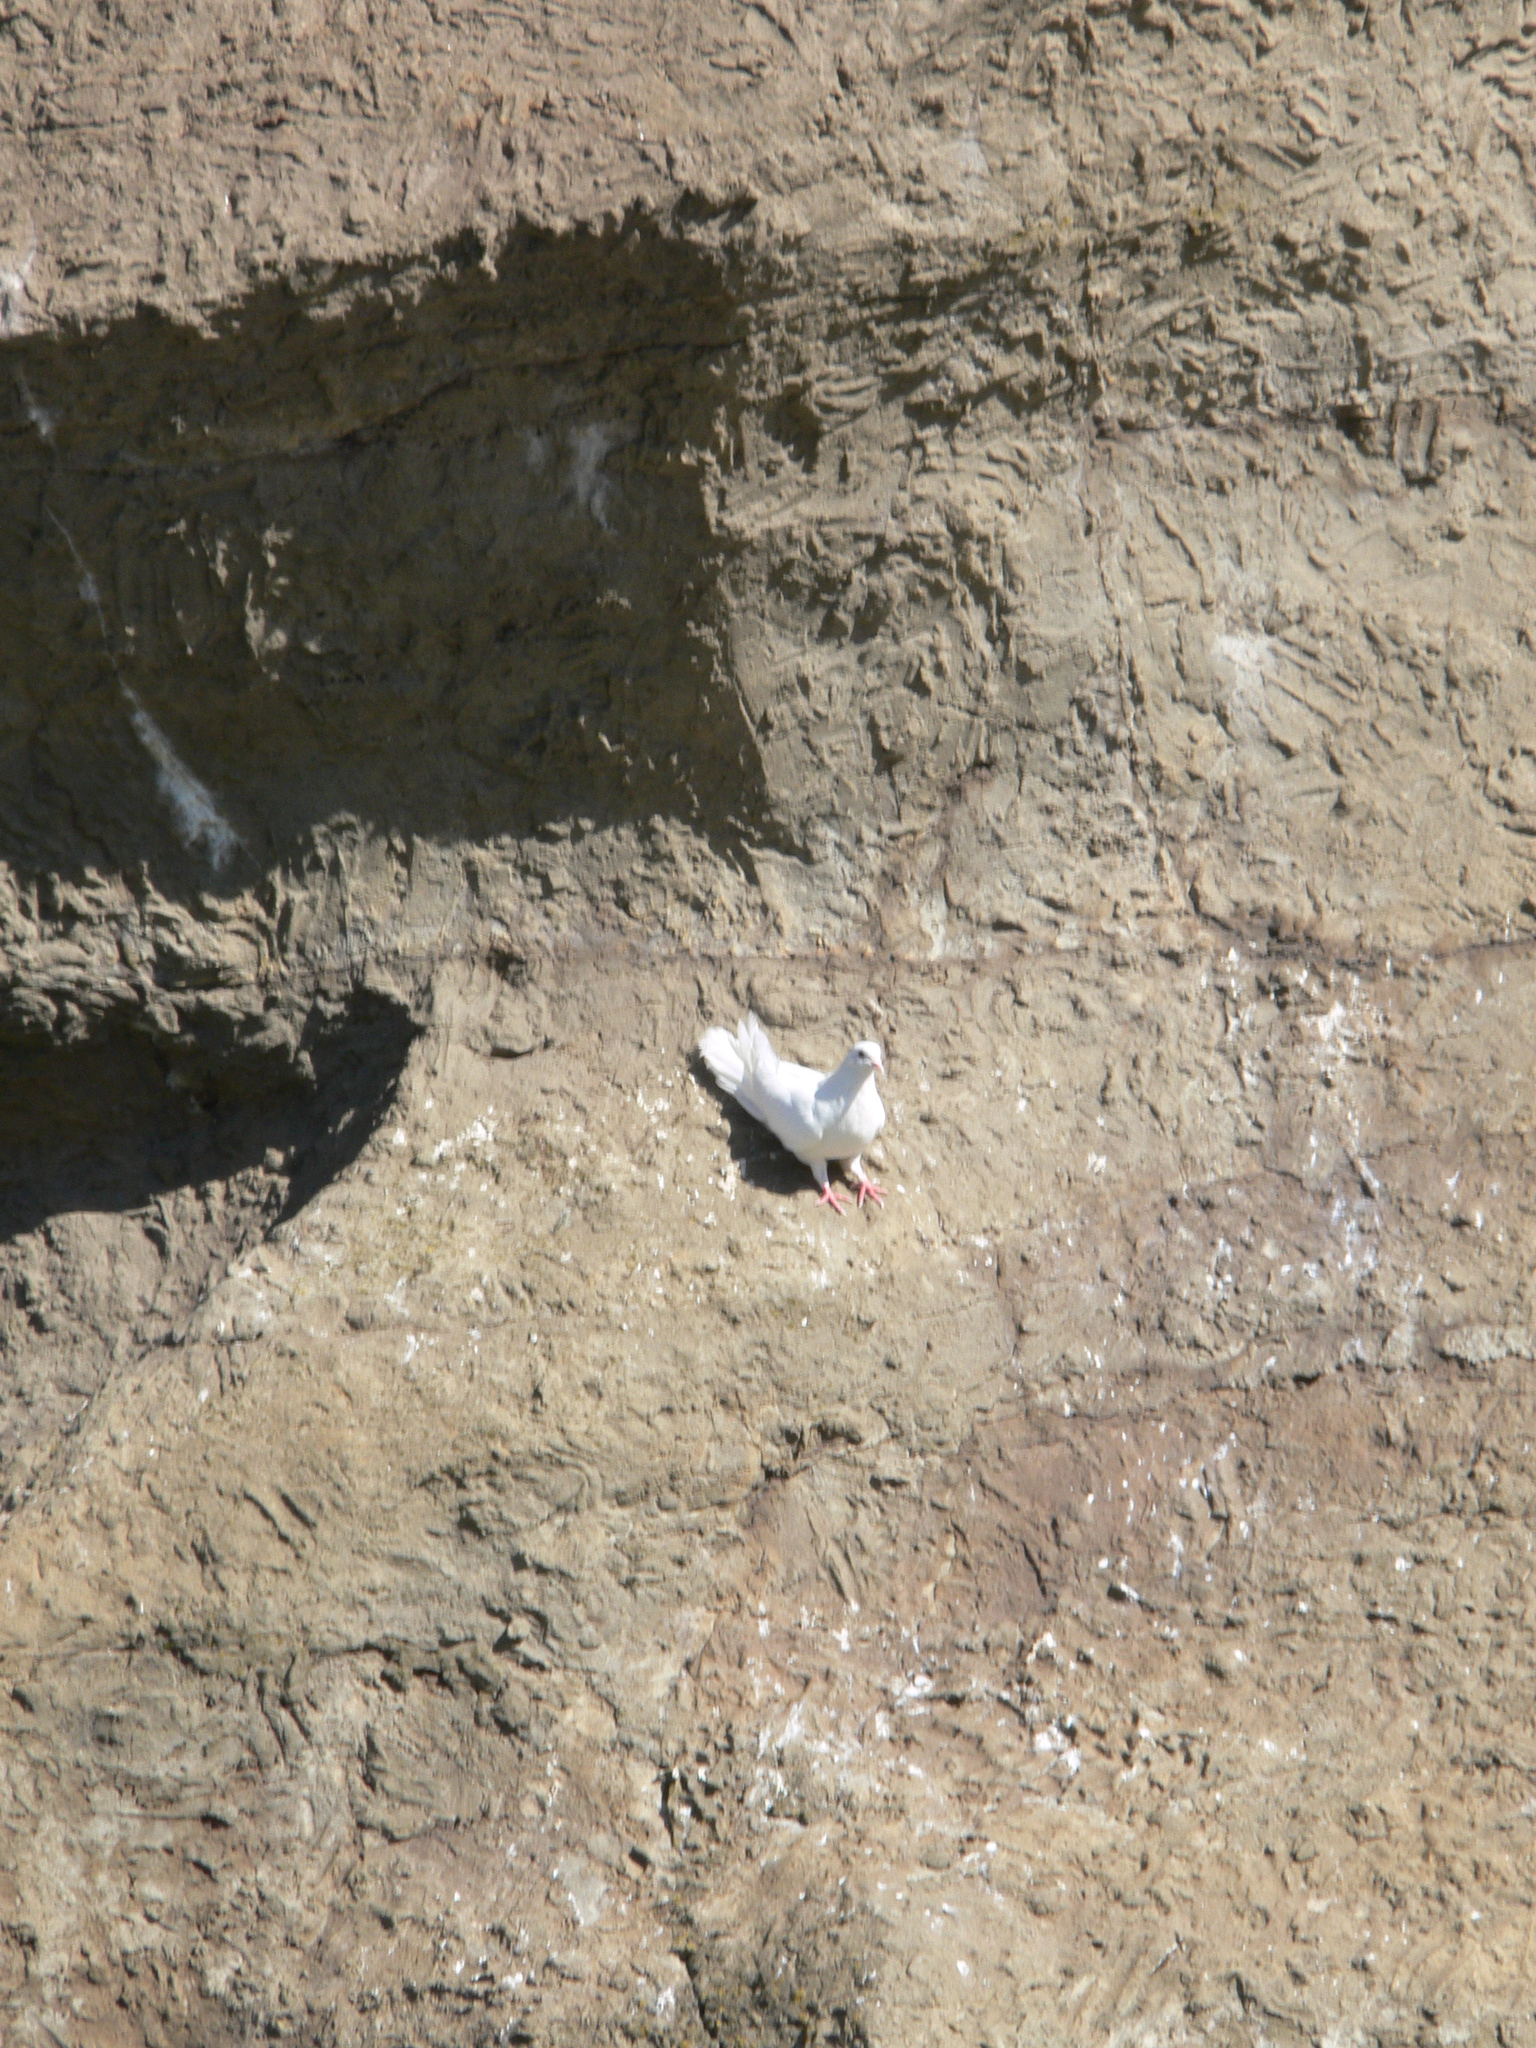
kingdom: Animalia
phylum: Chordata
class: Aves
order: Columbiformes
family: Columbidae
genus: Columba
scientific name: Columba livia
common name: Rock pigeon
